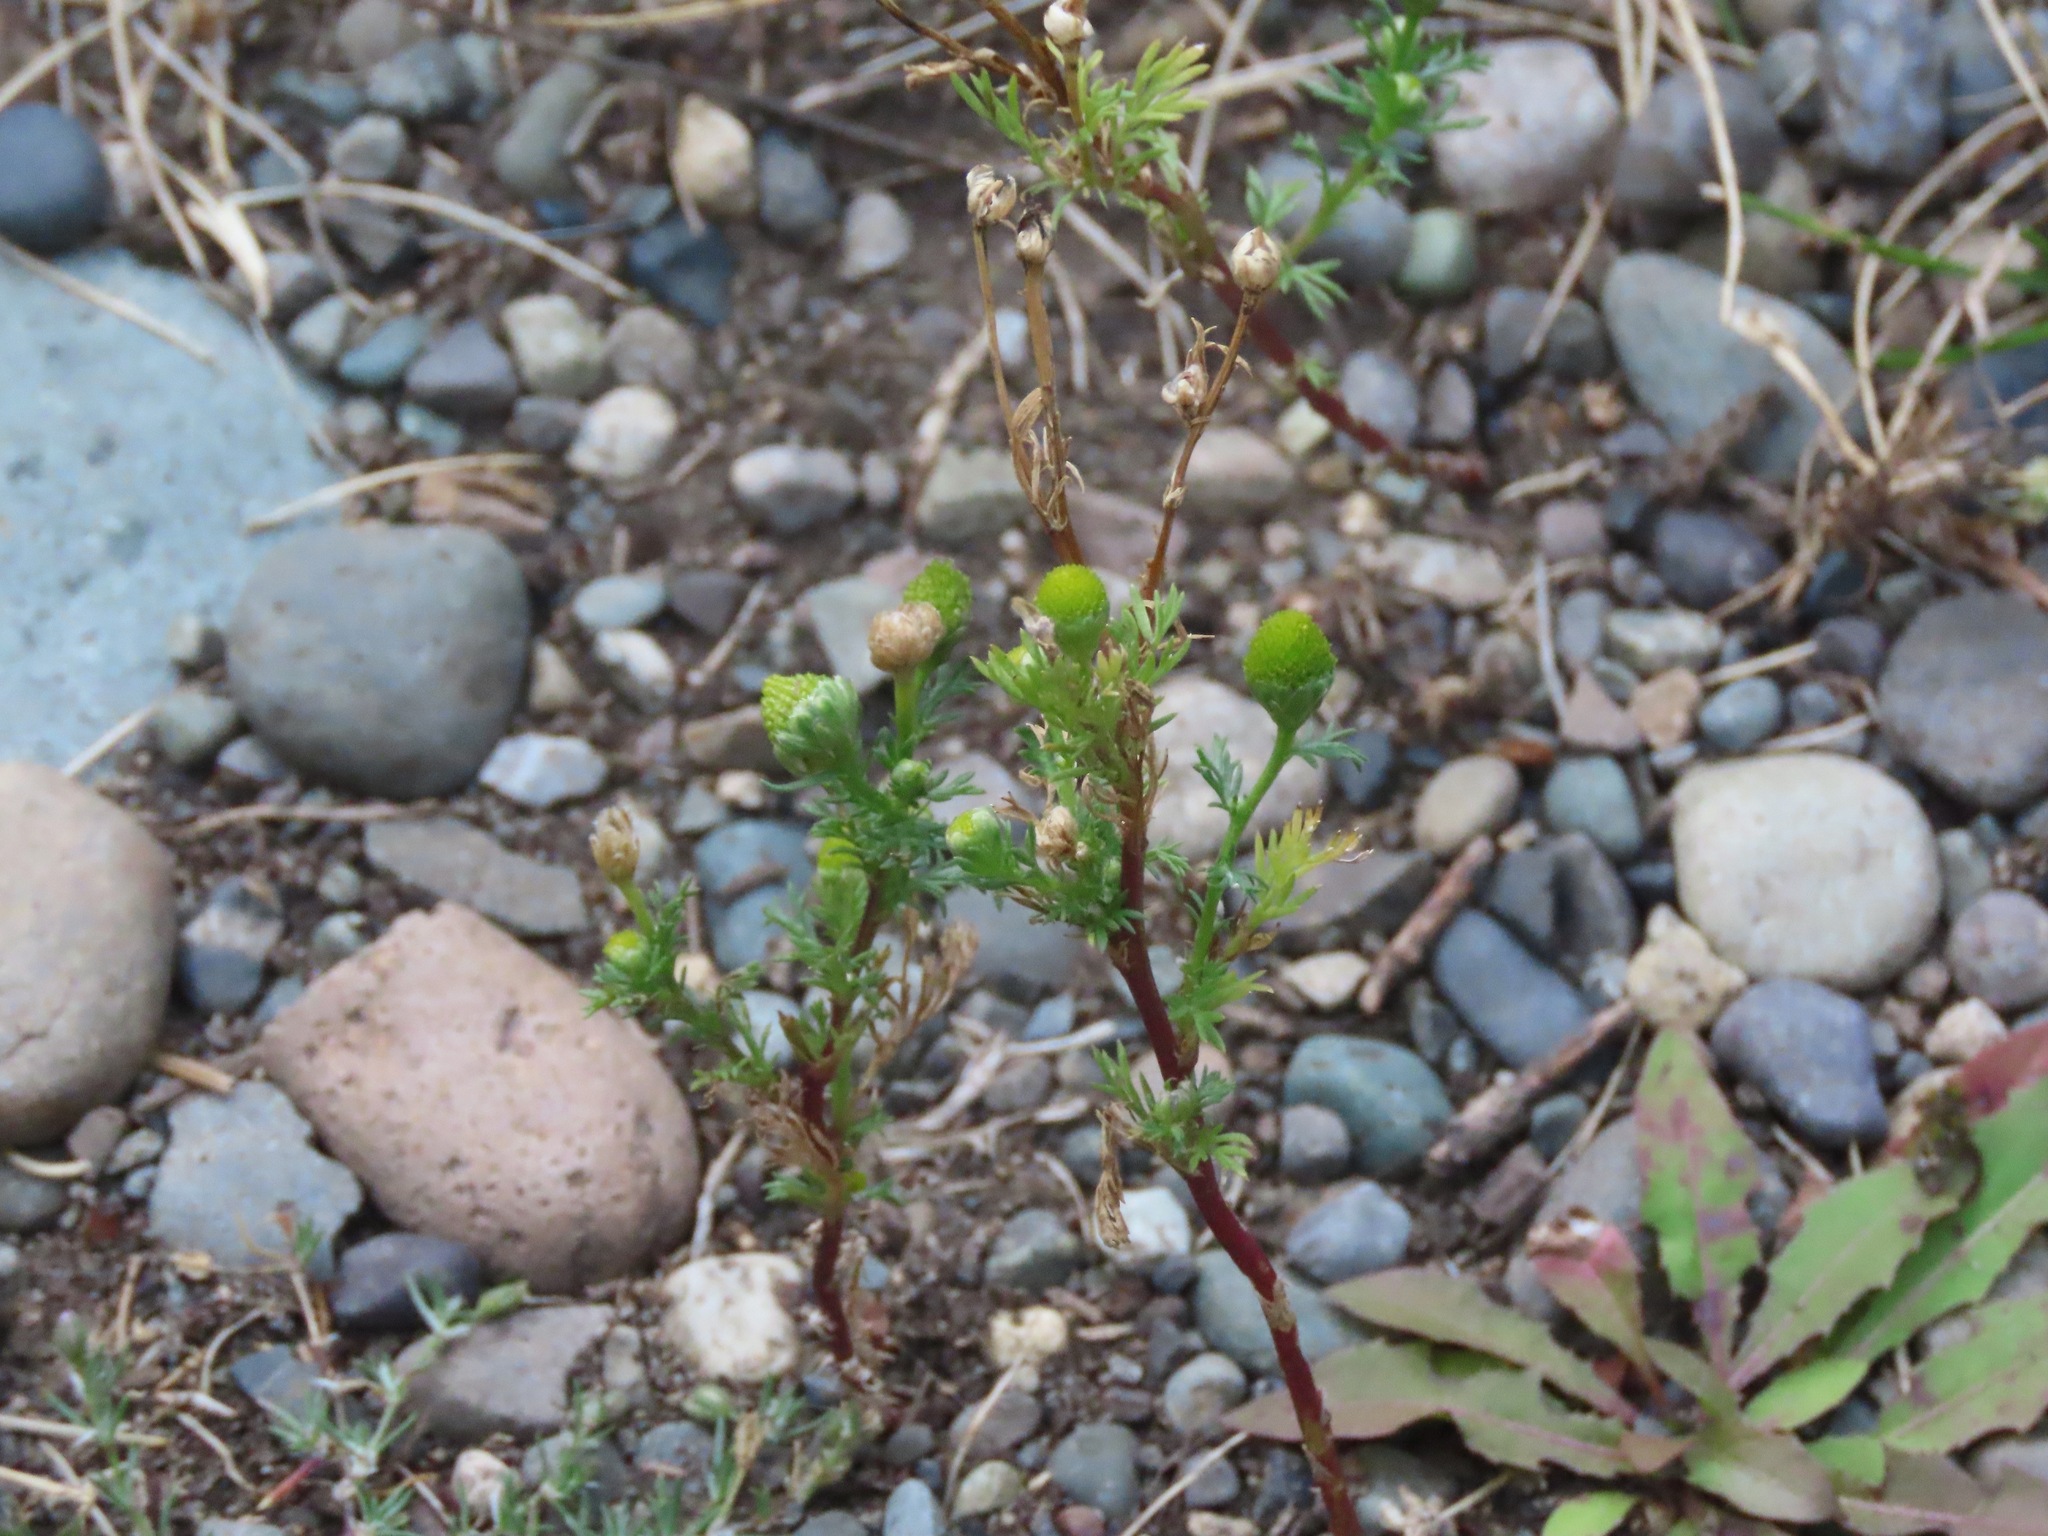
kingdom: Plantae
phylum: Tracheophyta
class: Magnoliopsida
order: Asterales
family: Asteraceae
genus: Matricaria
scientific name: Matricaria discoidea
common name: Disc mayweed
